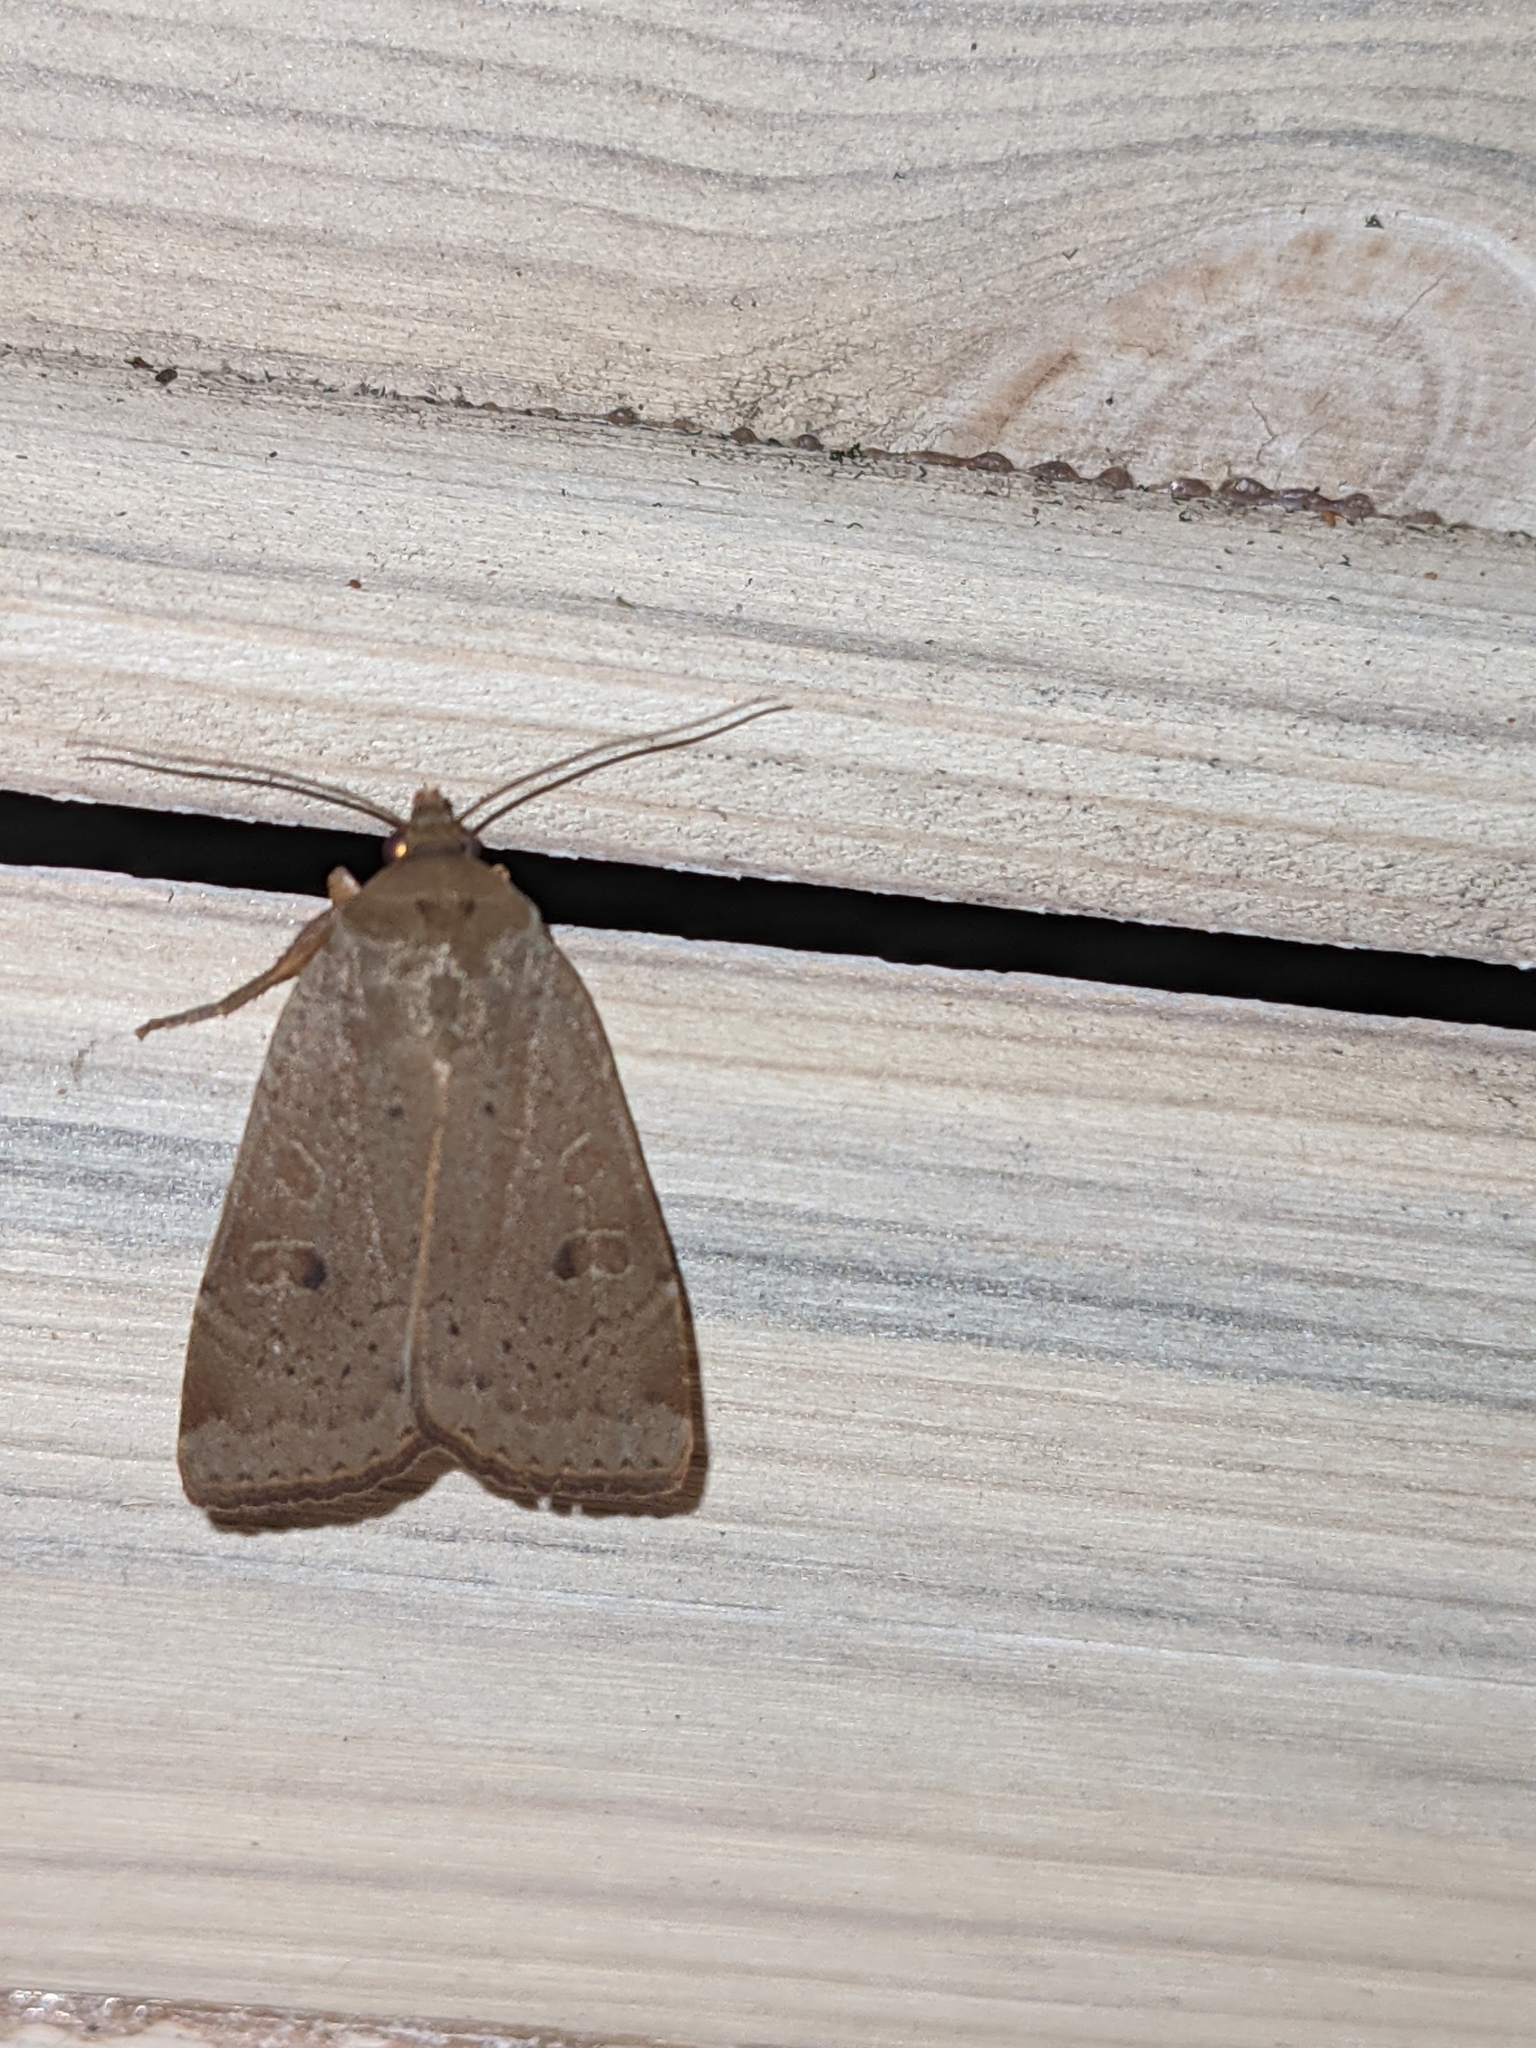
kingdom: Animalia
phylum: Arthropoda
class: Insecta
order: Lepidoptera
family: Noctuidae
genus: Noctua
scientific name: Noctua comes
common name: Lesser yellow underwing
